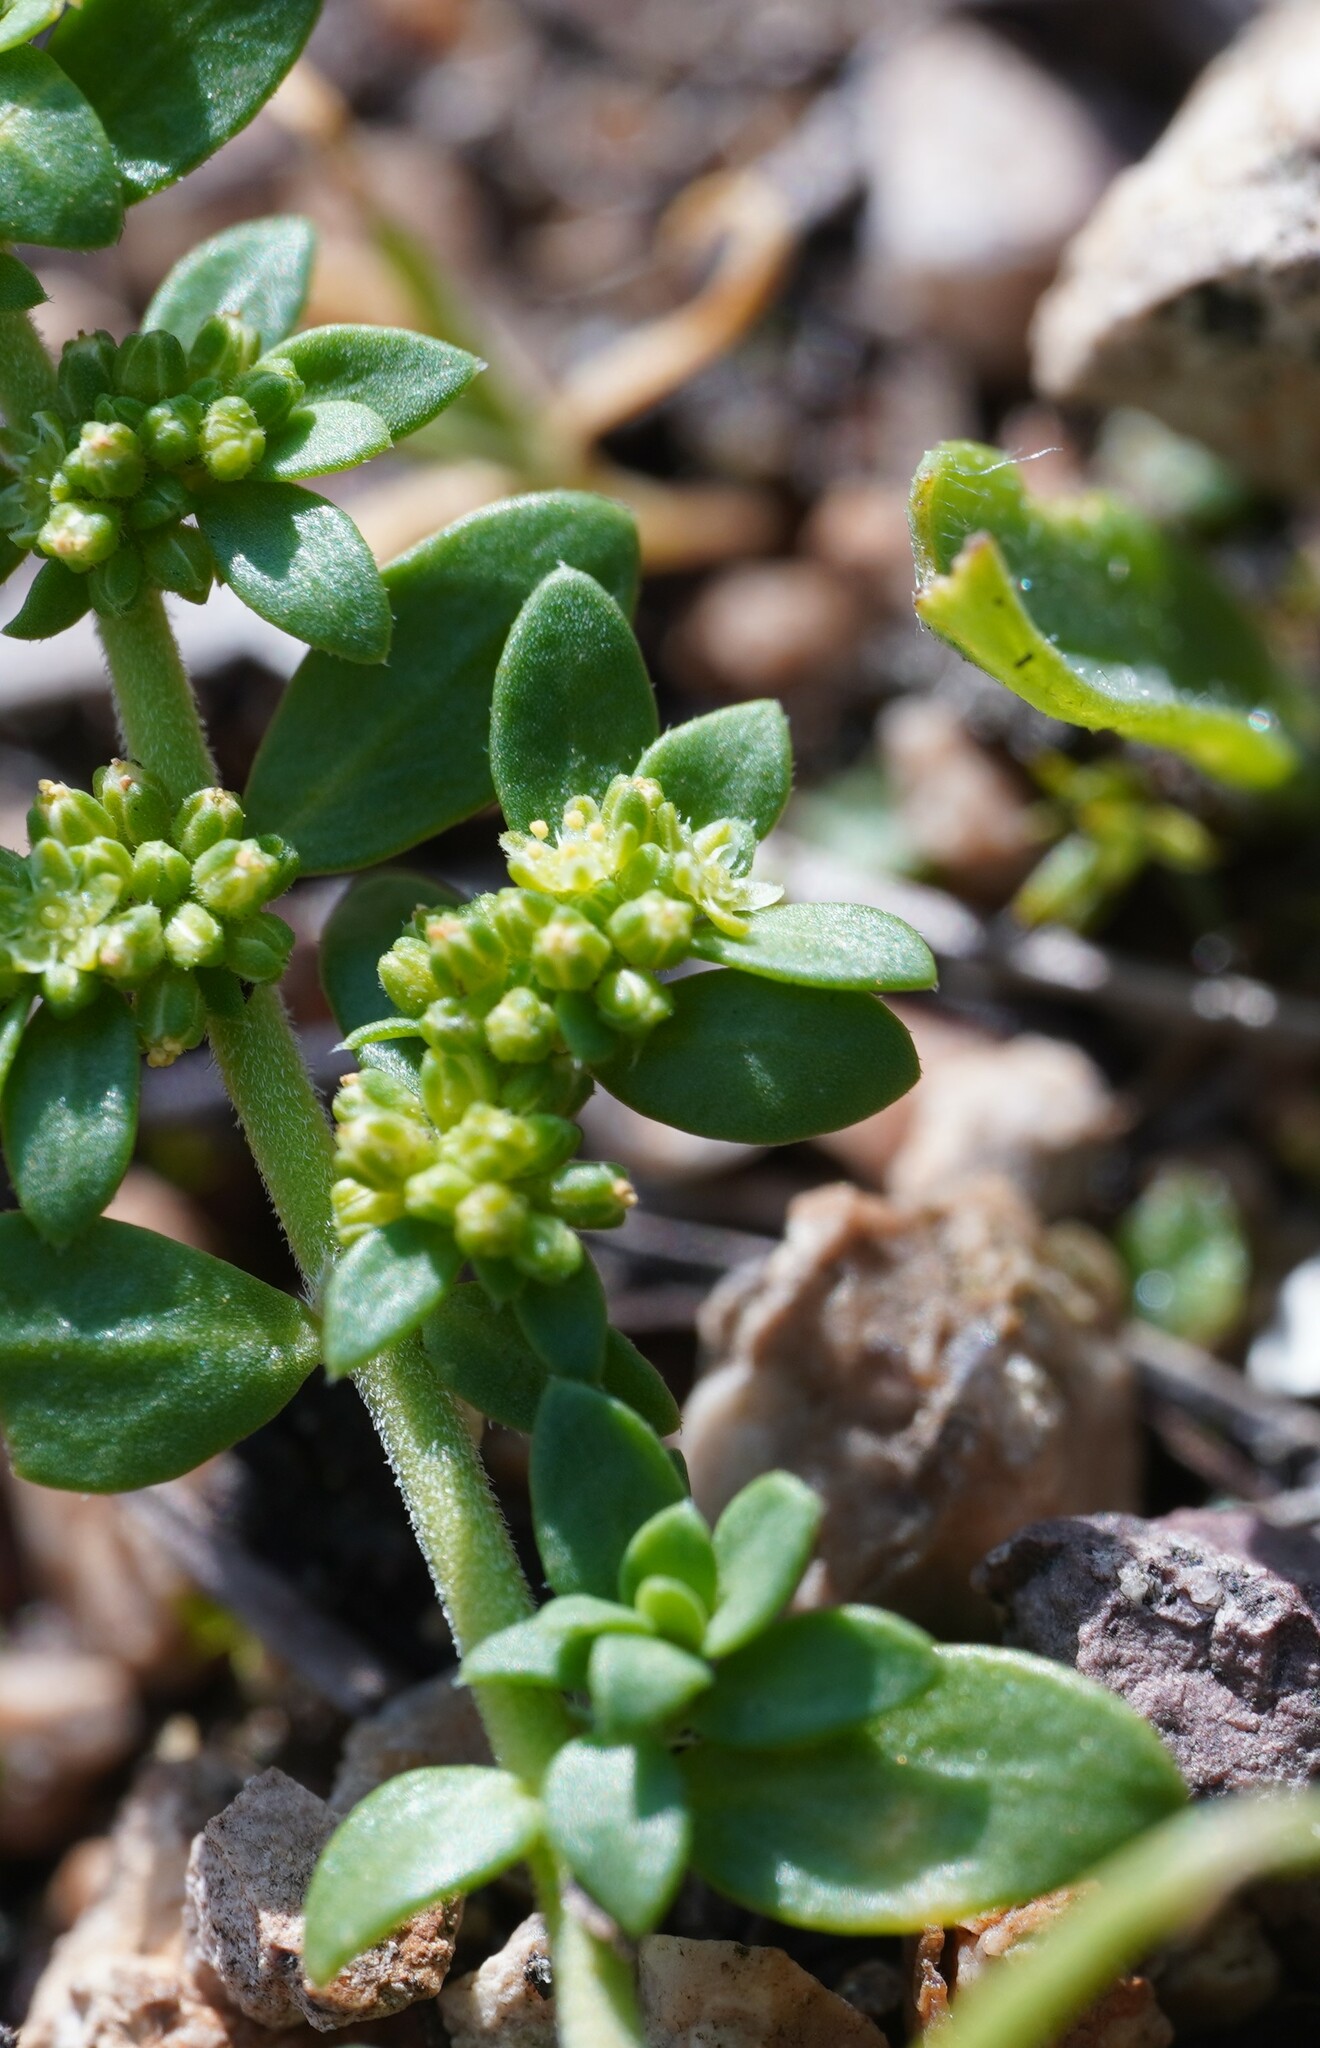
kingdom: Plantae
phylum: Tracheophyta
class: Magnoliopsida
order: Caryophyllales
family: Caryophyllaceae
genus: Herniaria
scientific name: Herniaria glabra
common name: Smooth rupturewort
